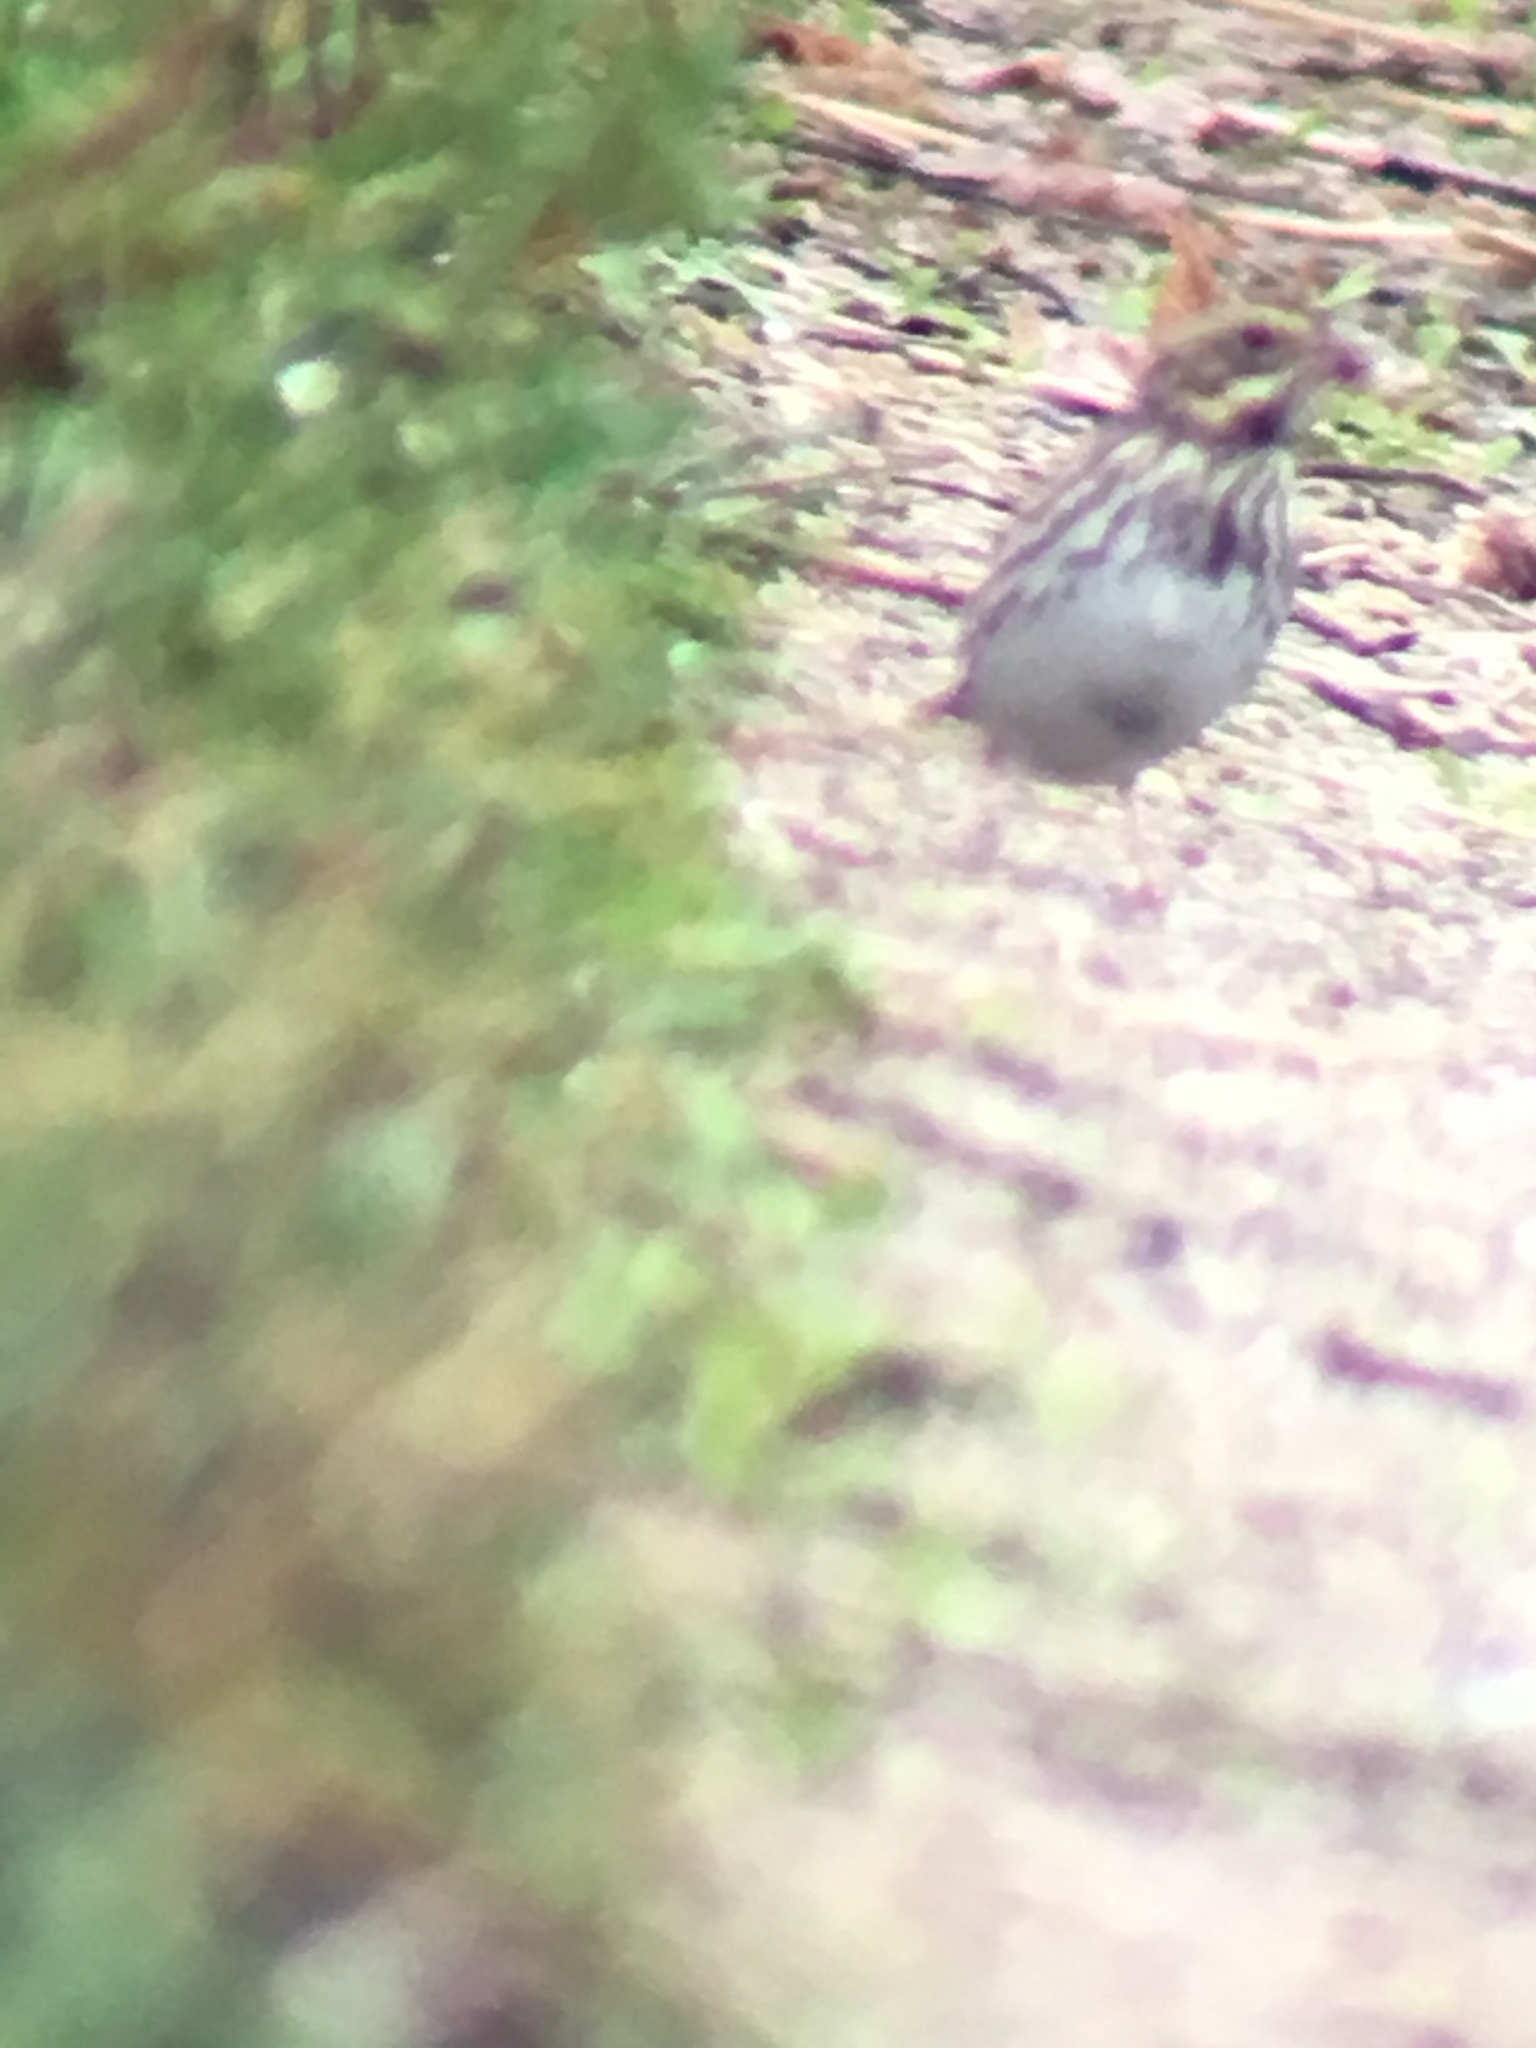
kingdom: Animalia
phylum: Chordata
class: Aves
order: Passeriformes
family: Passerellidae
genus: Passerculus
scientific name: Passerculus sandwichensis
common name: Savannah sparrow
